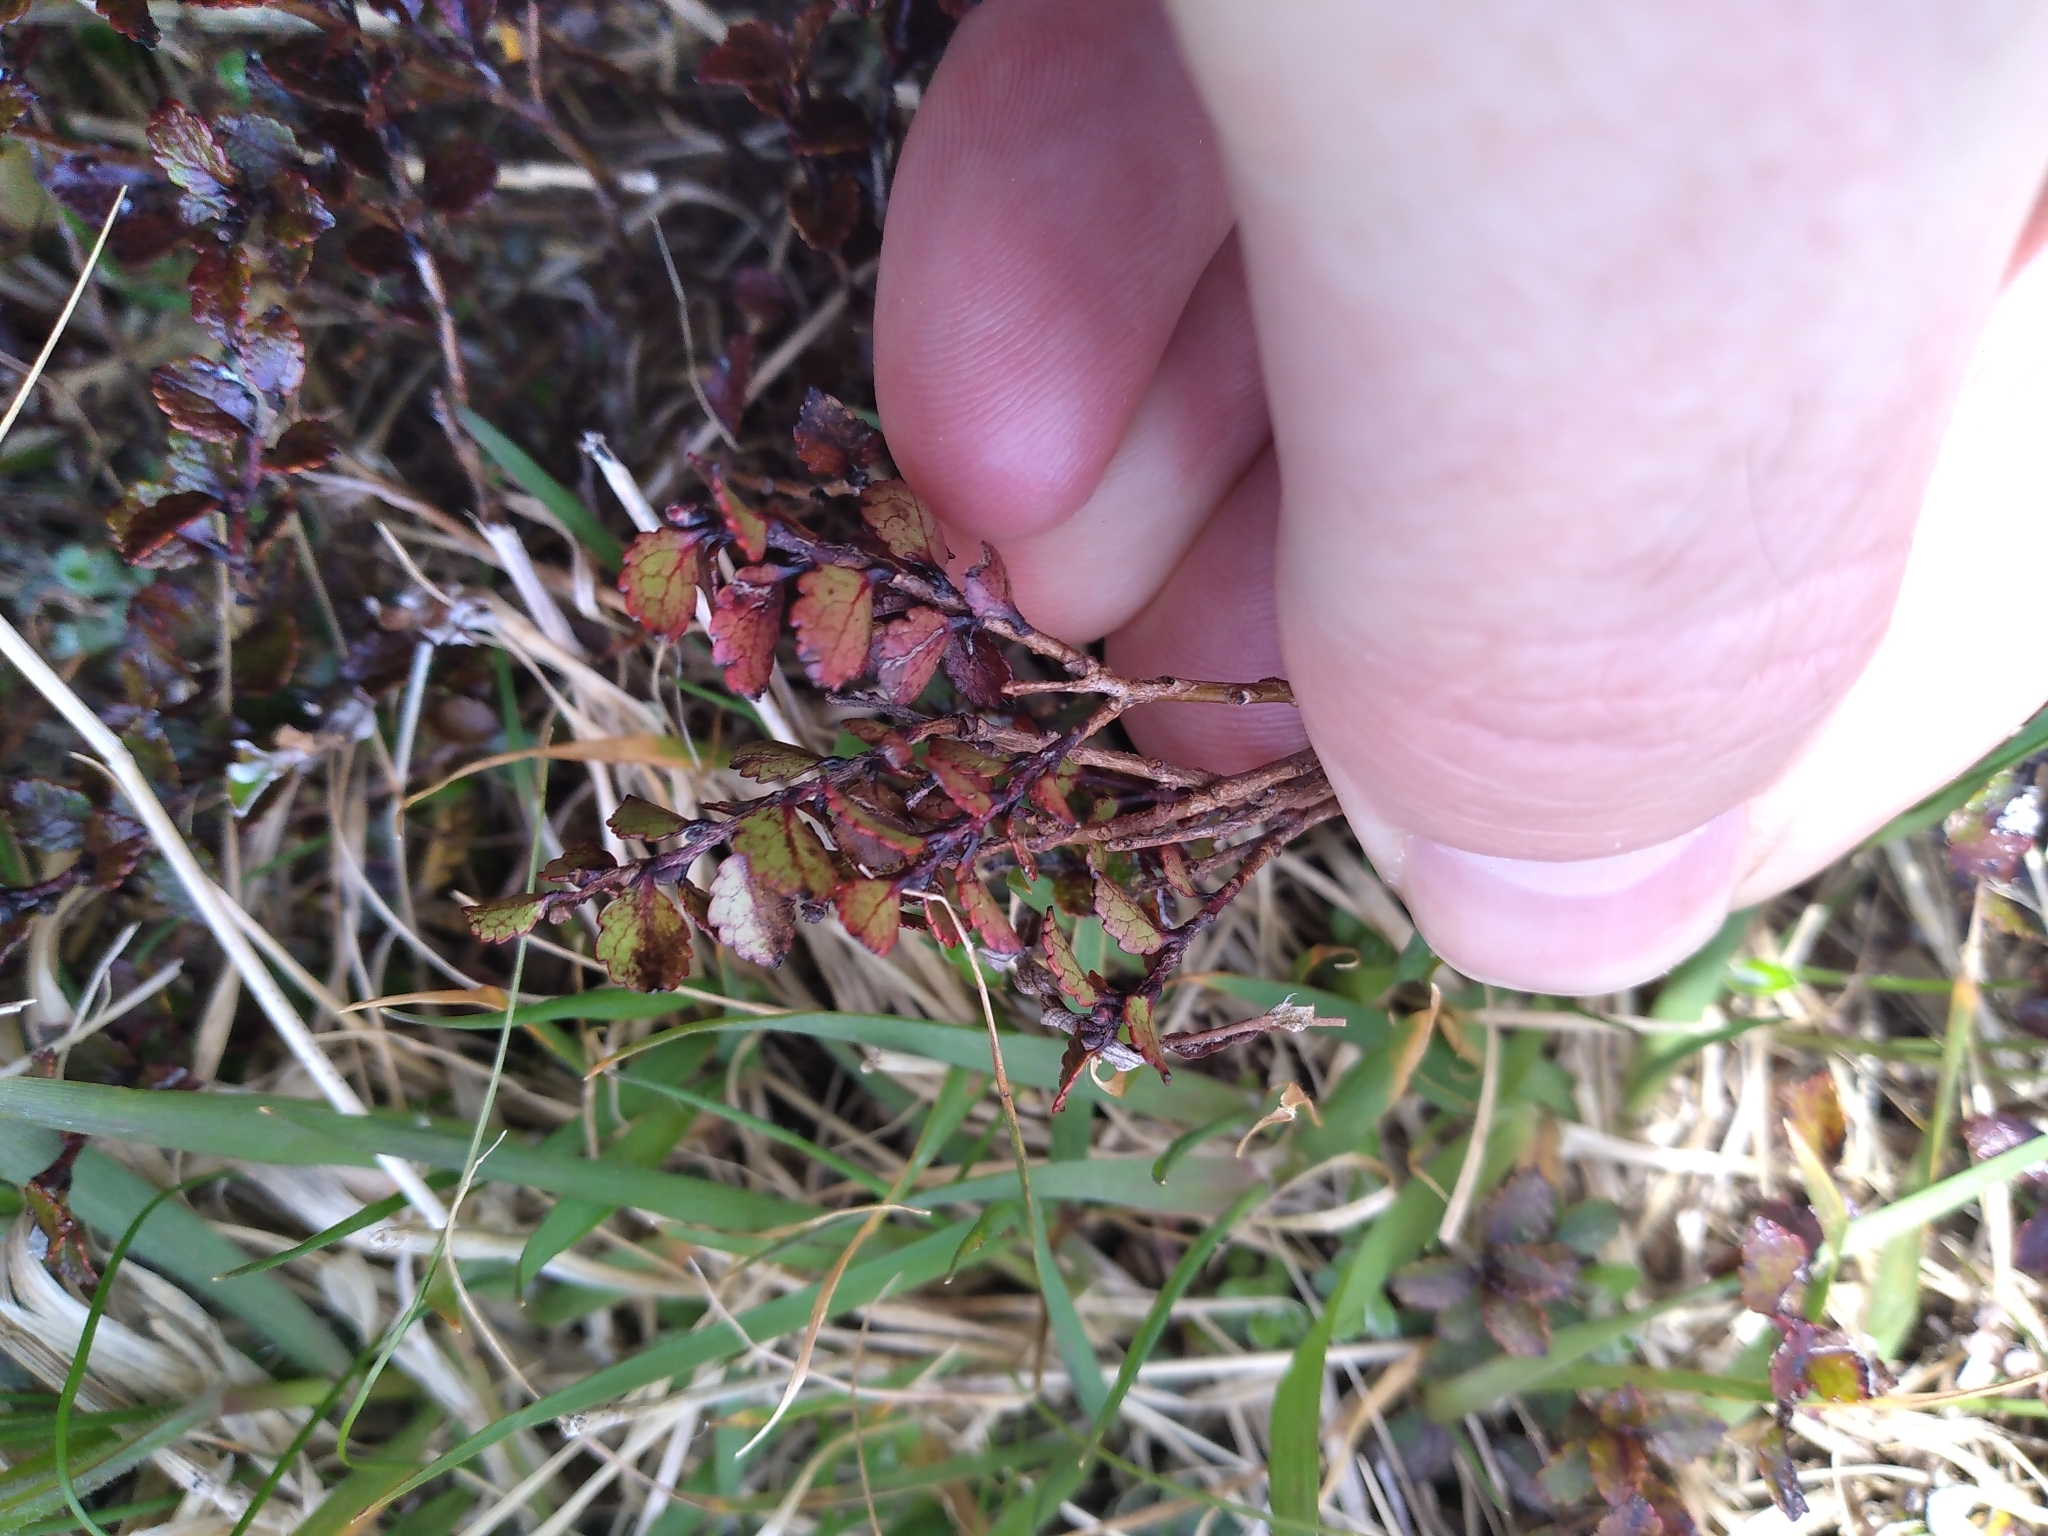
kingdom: Plantae
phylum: Tracheophyta
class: Magnoliopsida
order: Ericales
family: Ericaceae
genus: Gaultheria
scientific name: Gaultheria depressa
